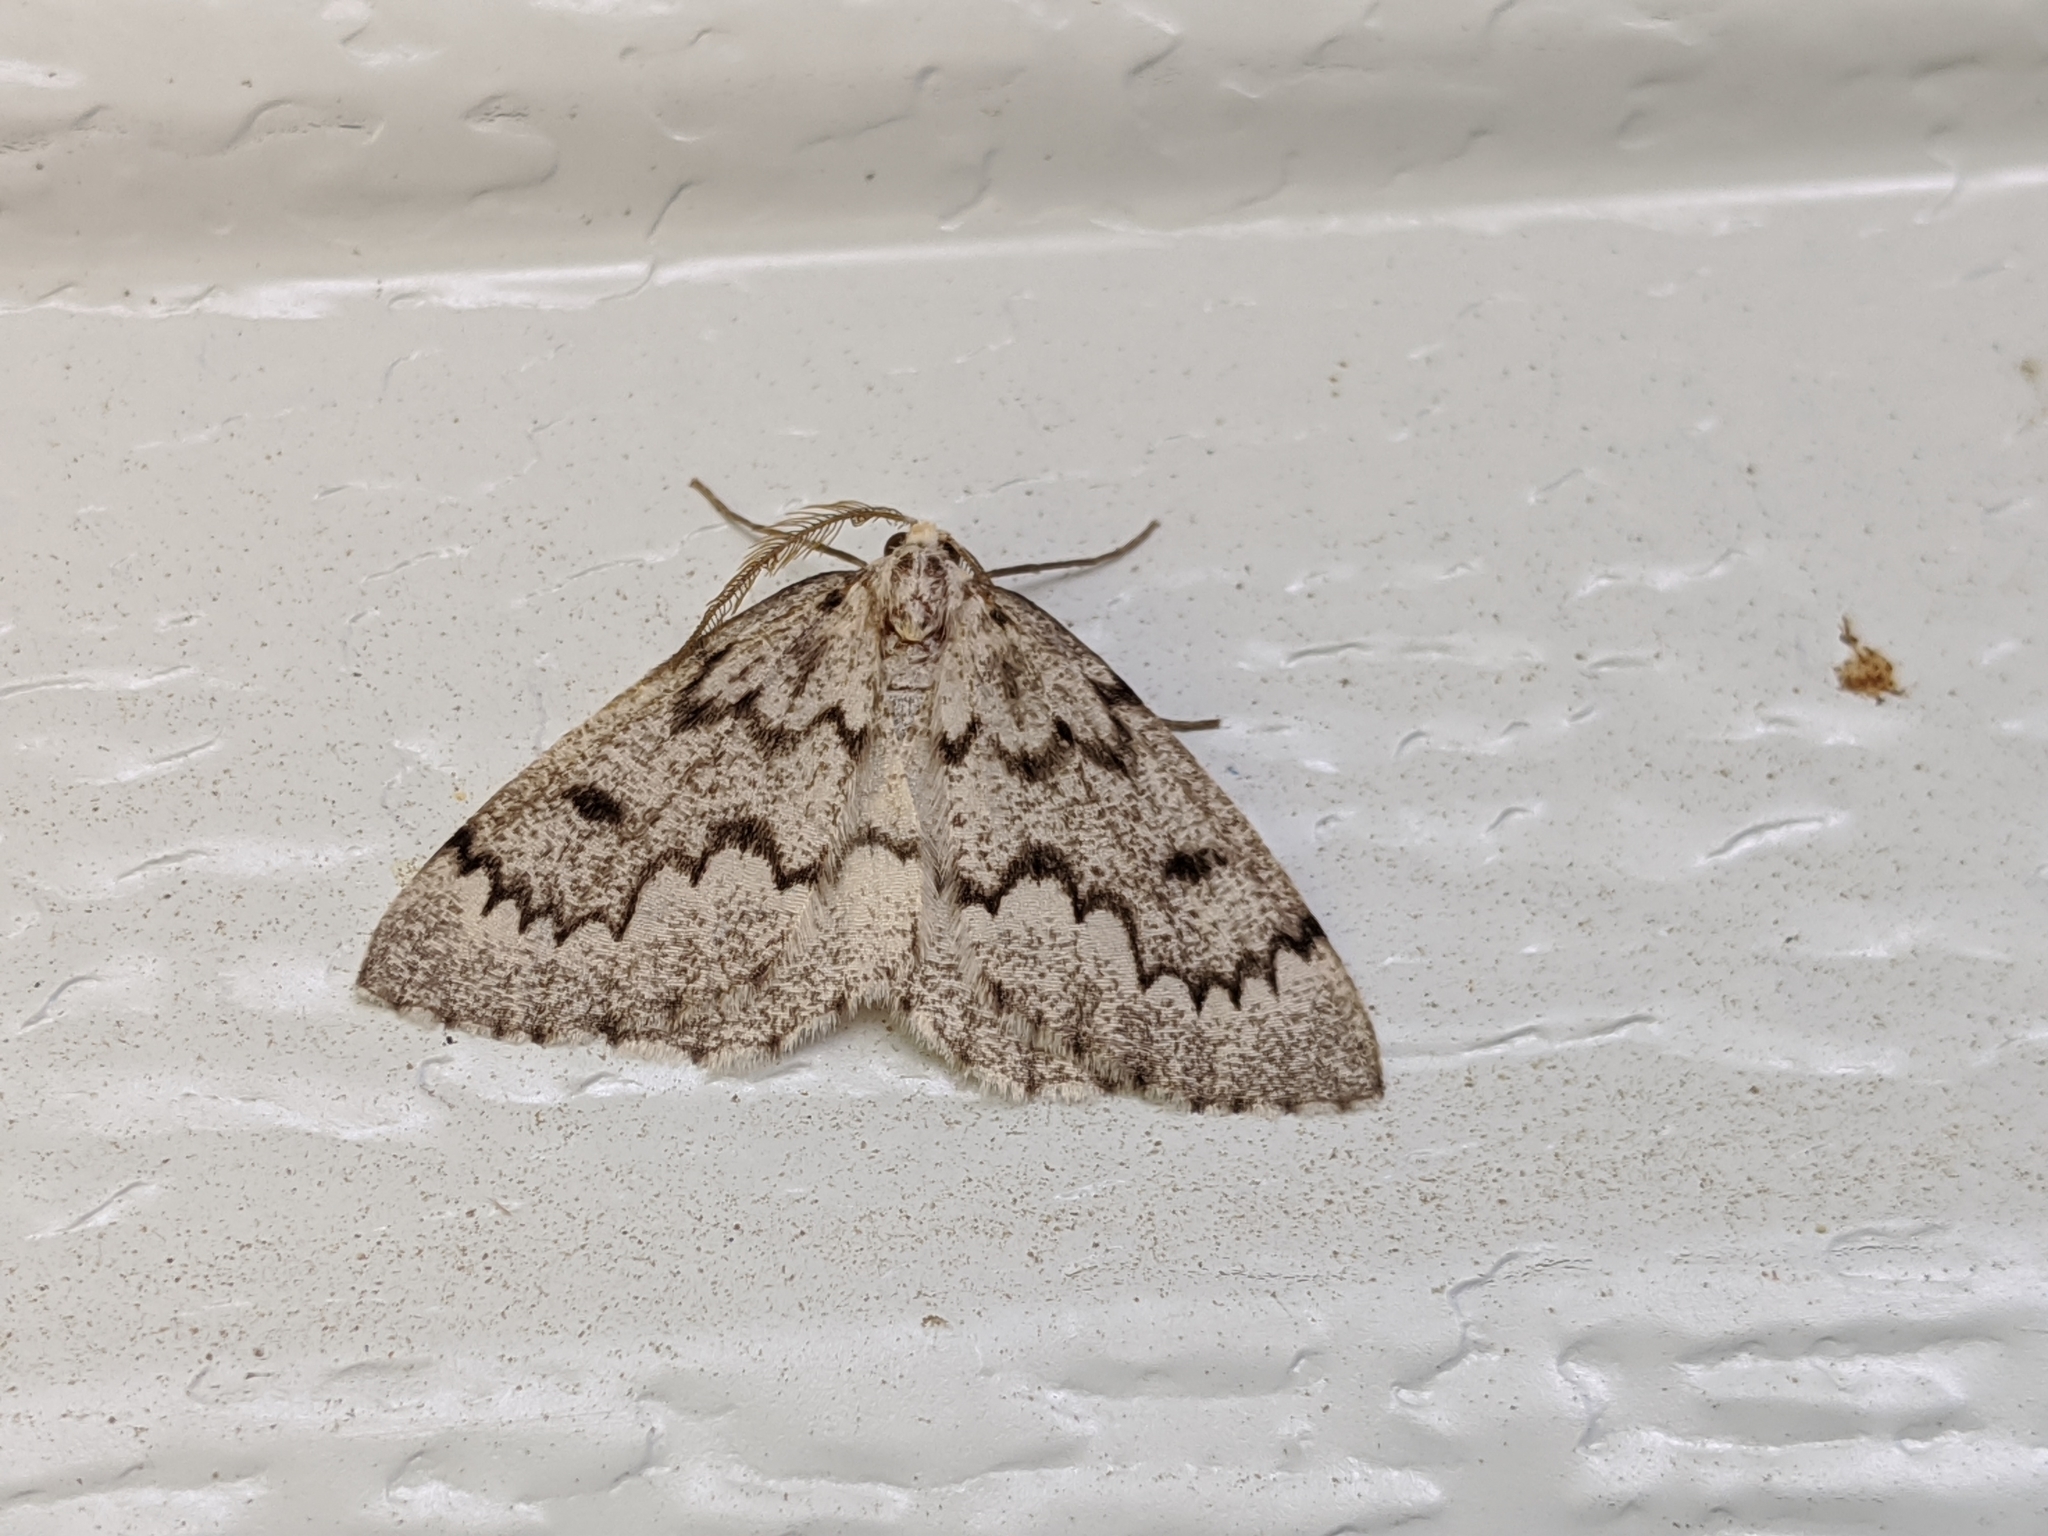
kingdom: Animalia
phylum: Arthropoda
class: Insecta
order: Lepidoptera
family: Geometridae
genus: Nepytia
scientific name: Nepytia canosaria
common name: False hemlock looper
